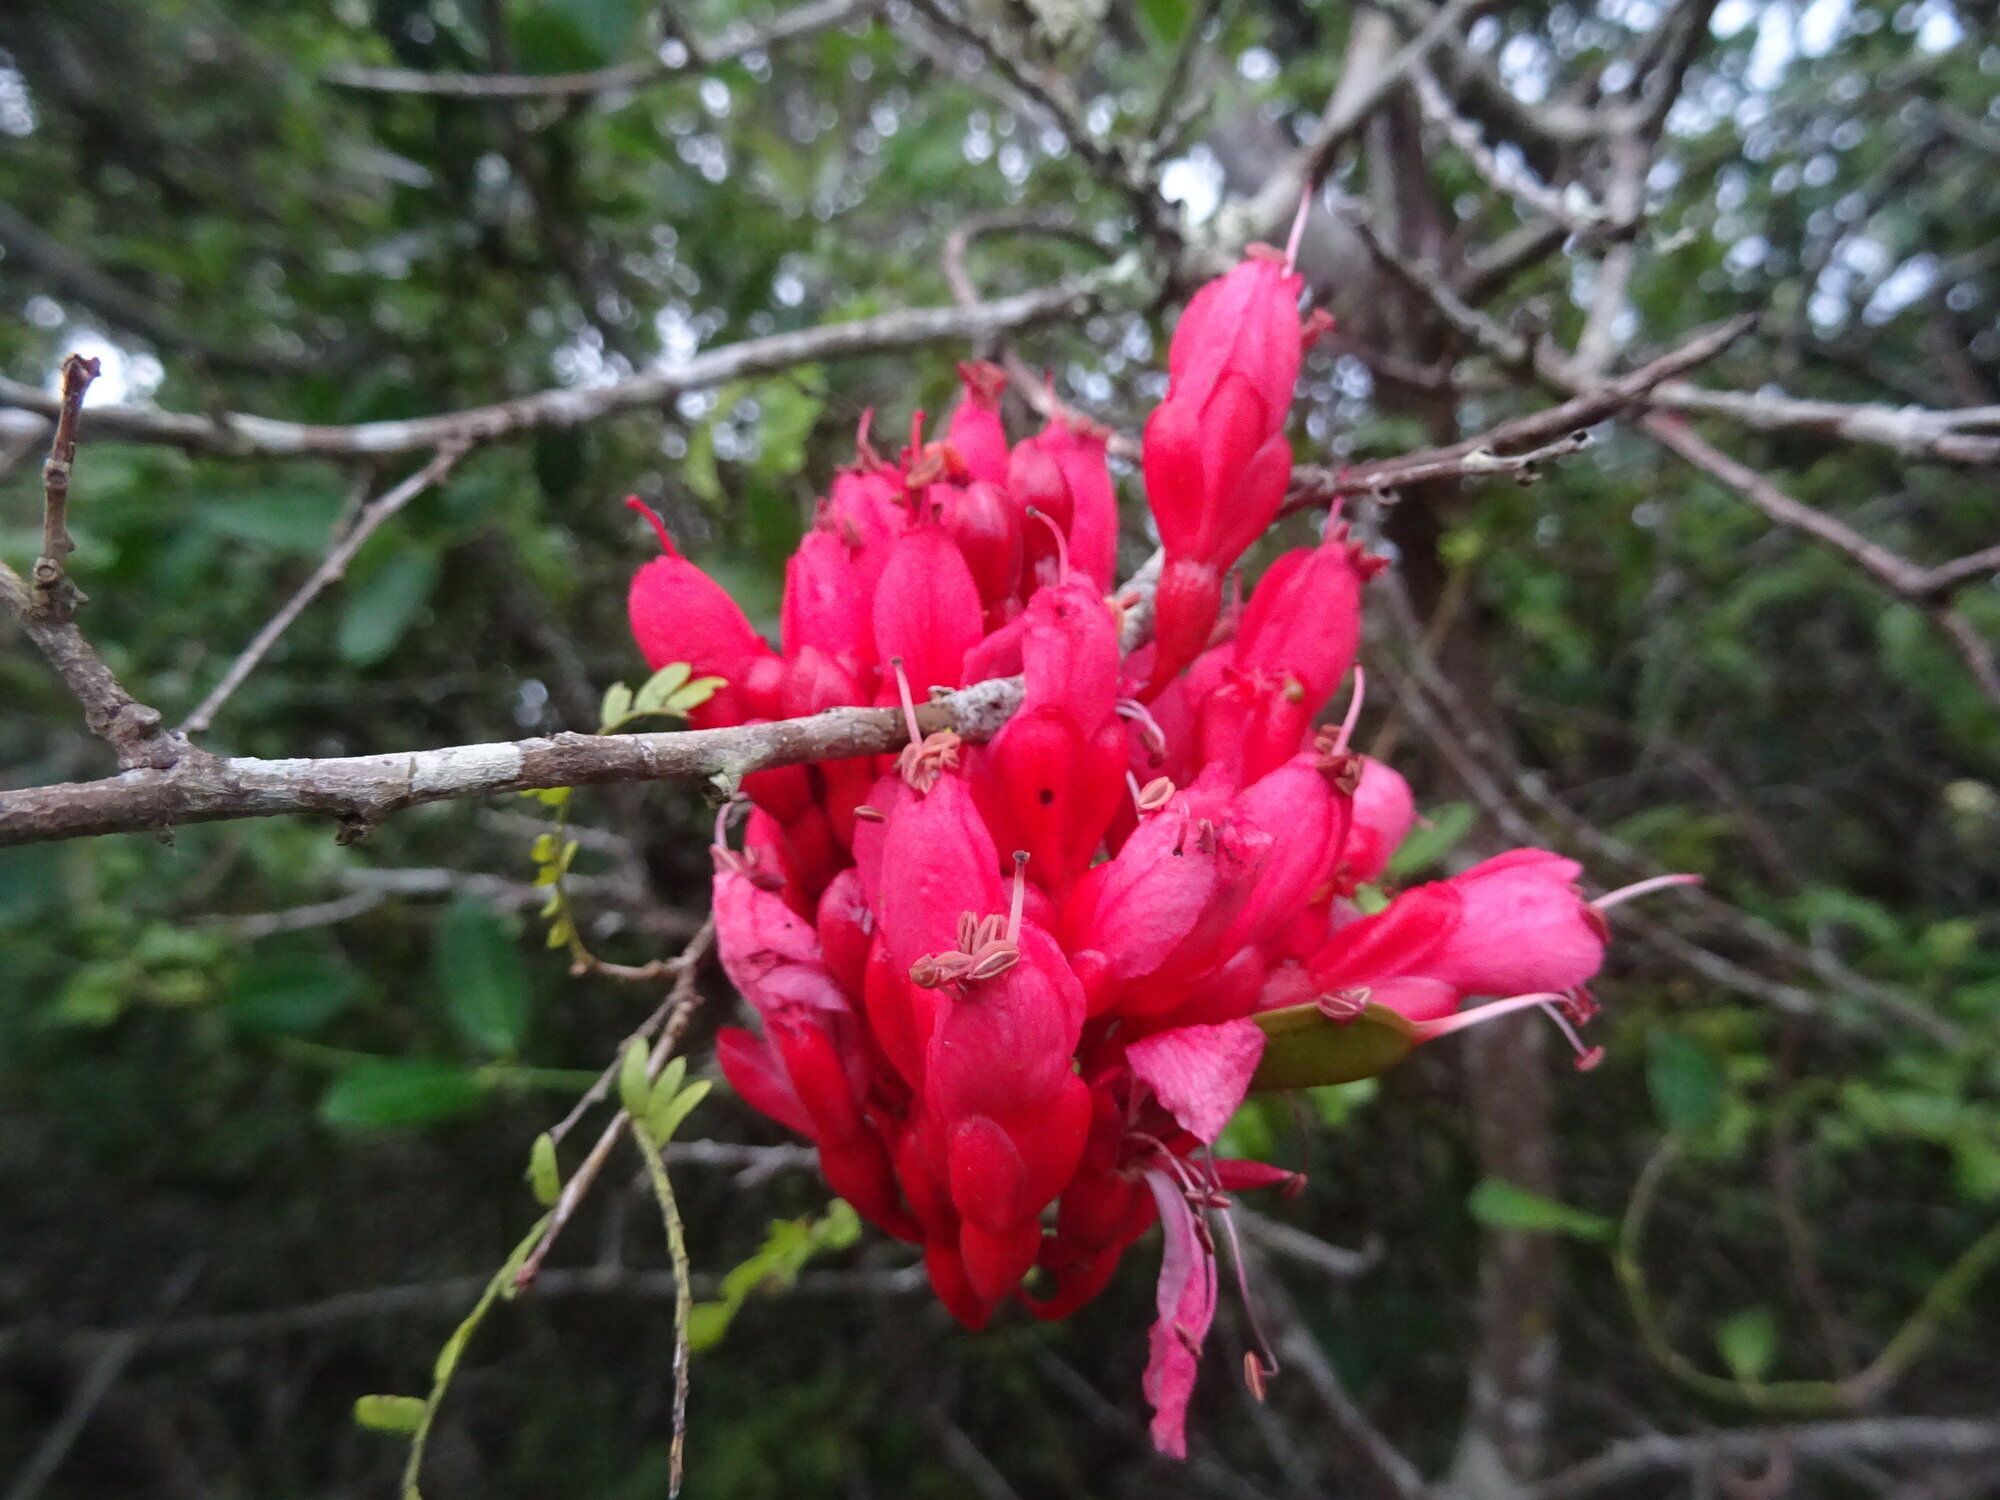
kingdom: Plantae
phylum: Tracheophyta
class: Magnoliopsida
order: Fabales
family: Fabaceae
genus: Schotia
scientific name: Schotia afra
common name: Hottentot's bean
